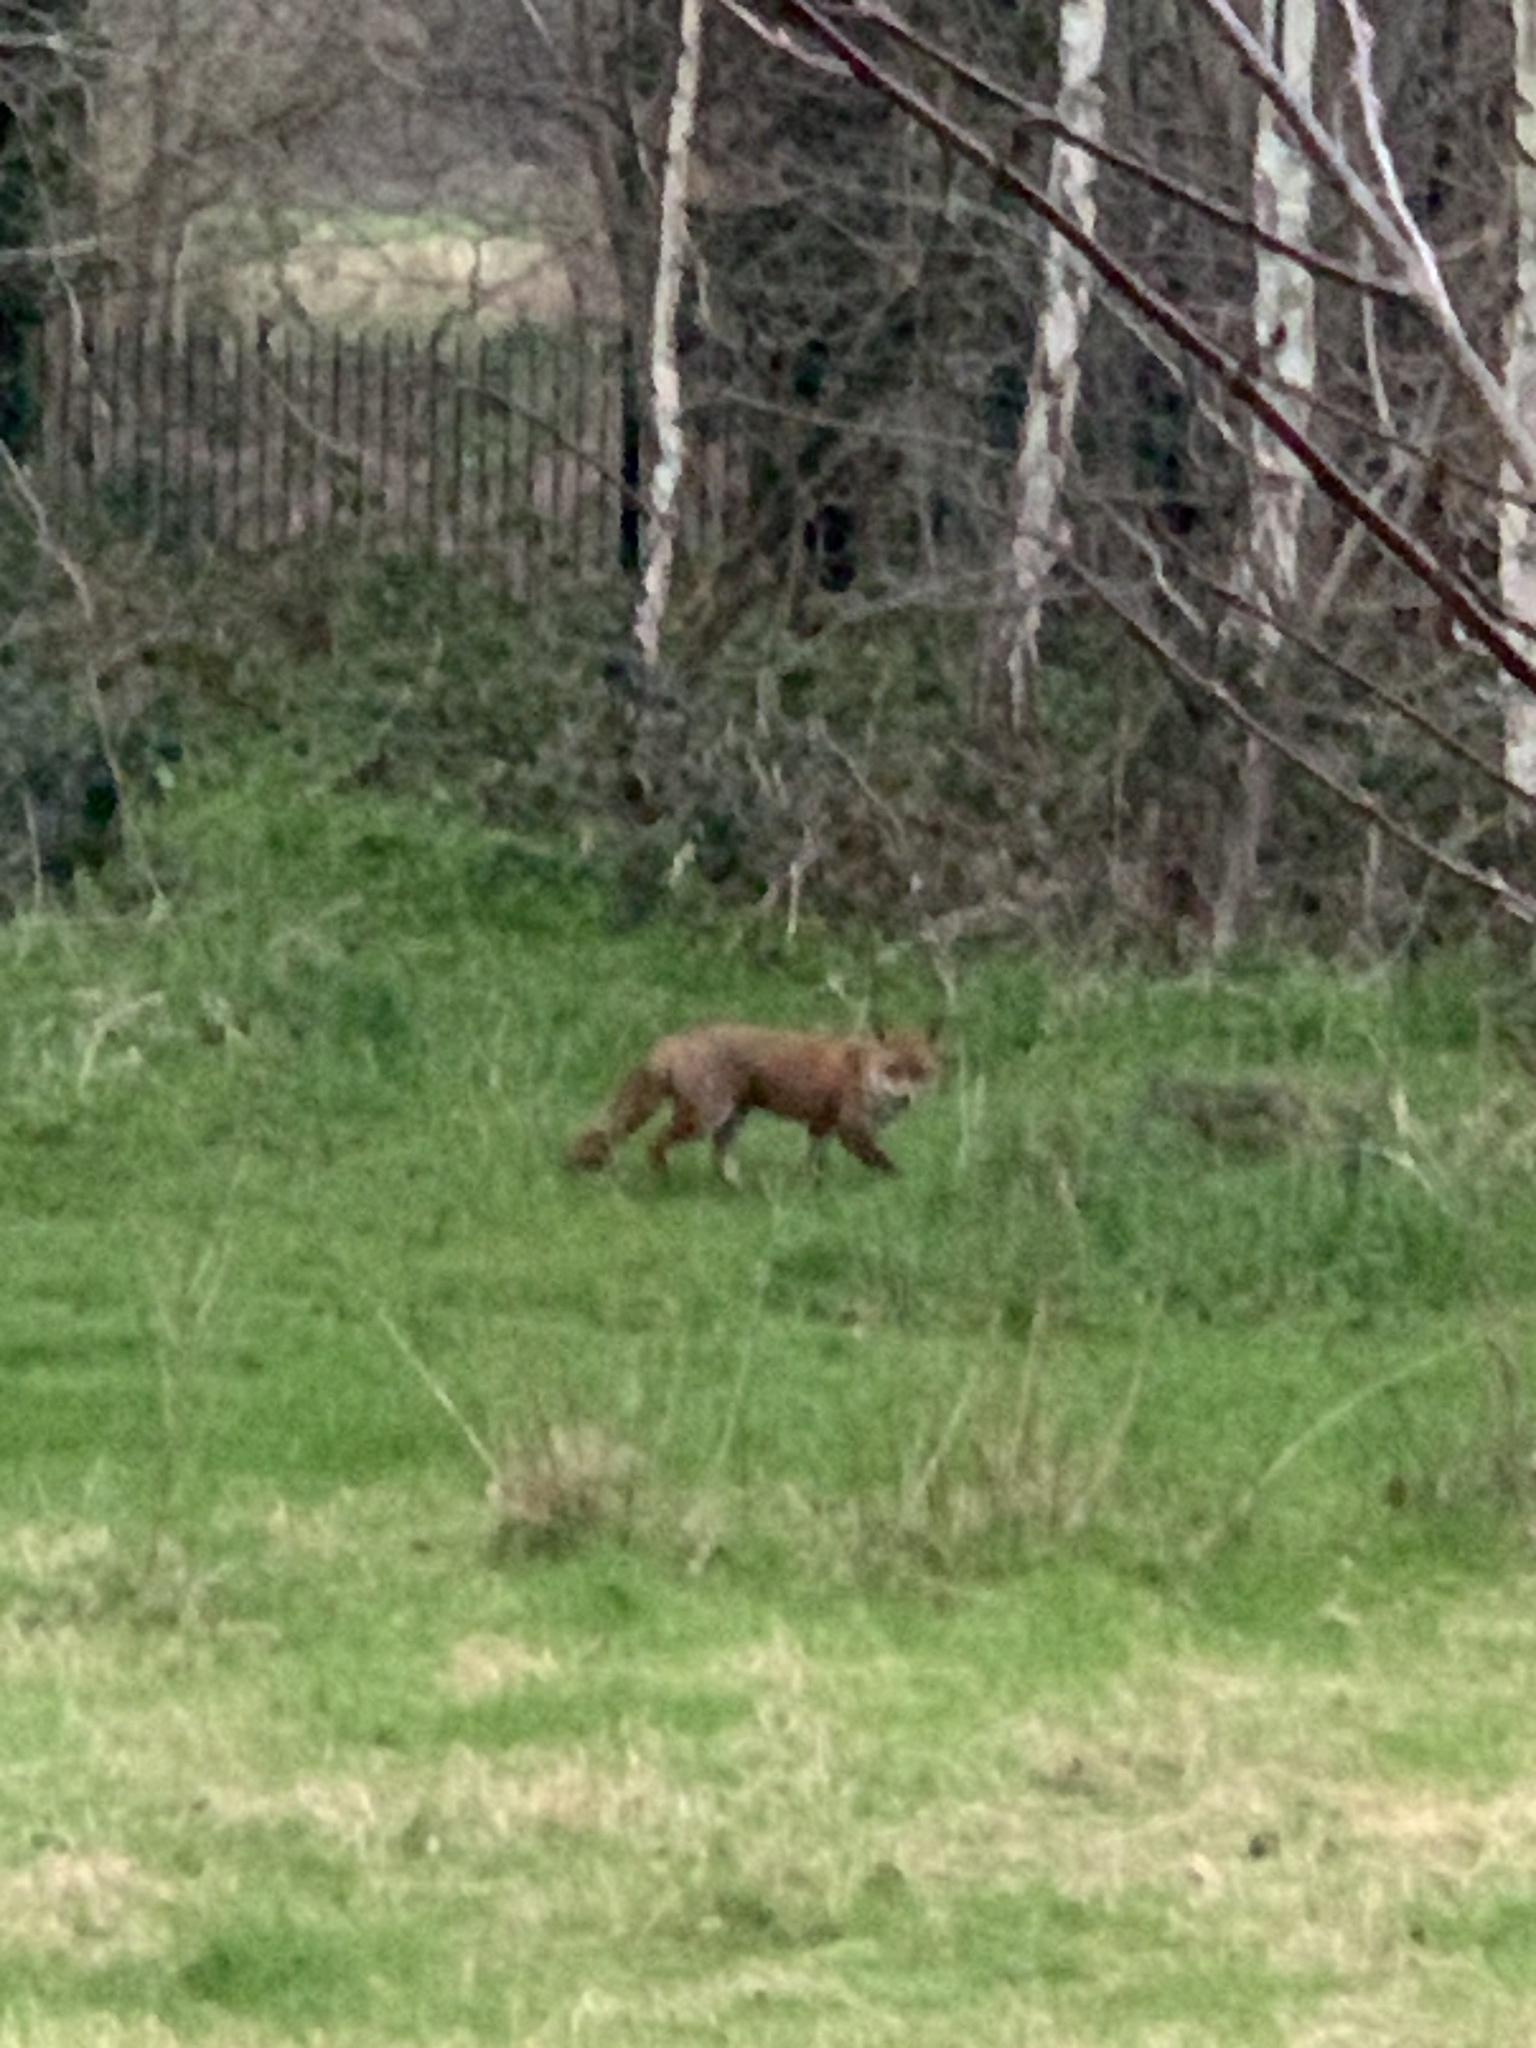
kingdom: Animalia
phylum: Chordata
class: Mammalia
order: Carnivora
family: Canidae
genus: Vulpes
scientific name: Vulpes vulpes
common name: Red fox
